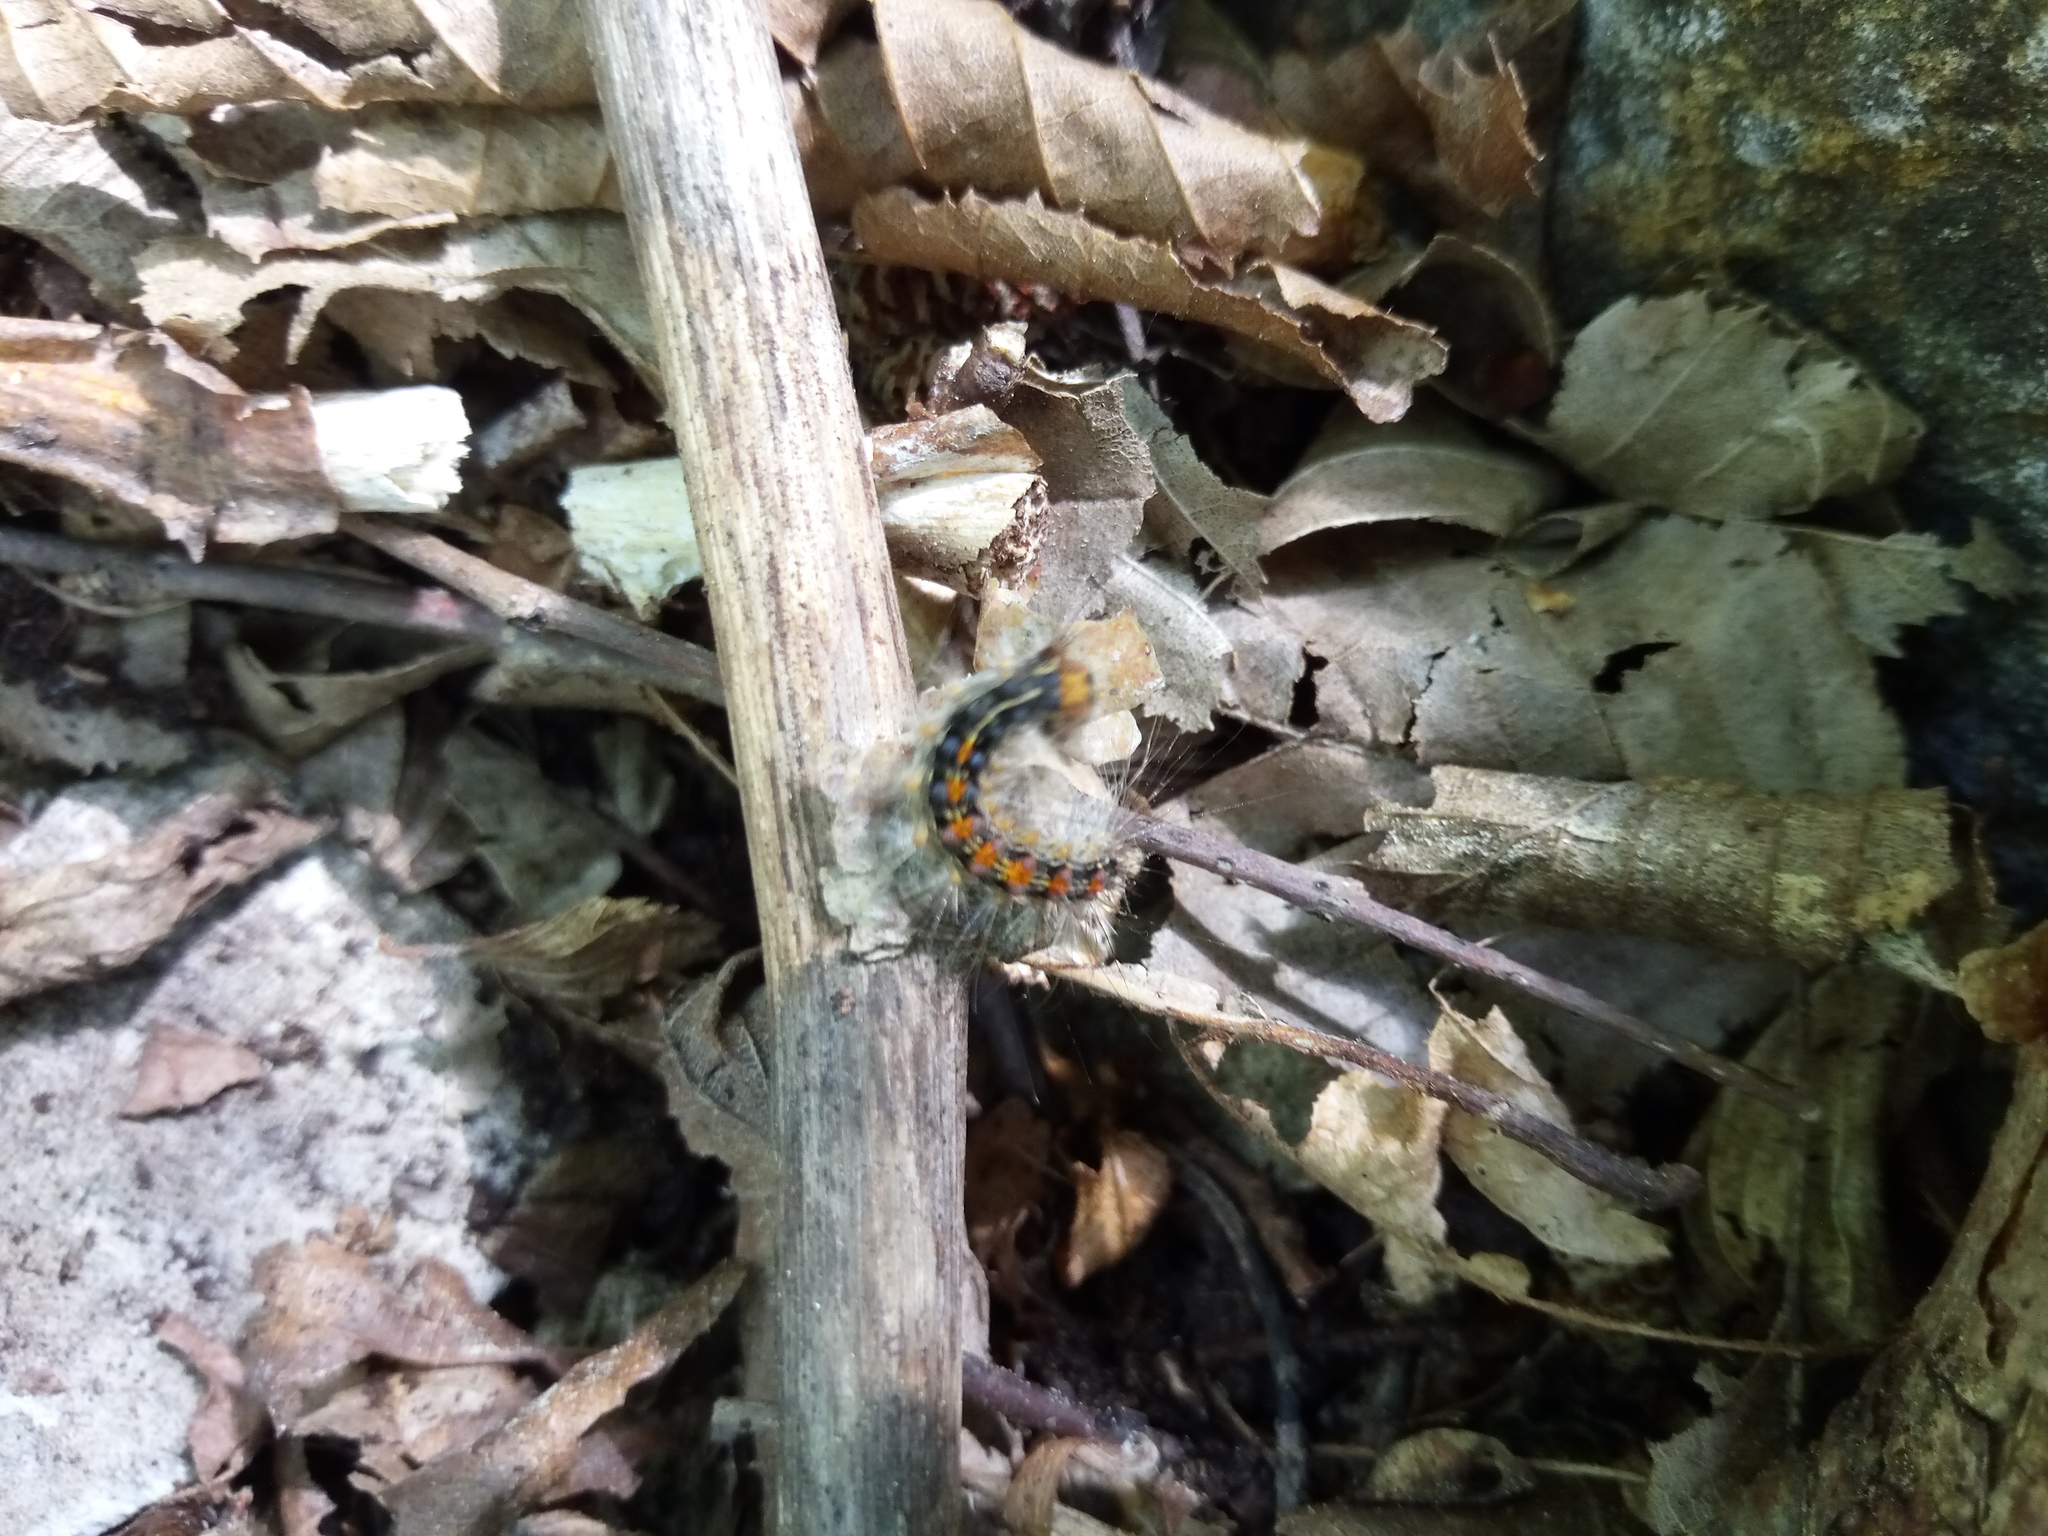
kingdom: Animalia
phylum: Arthropoda
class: Insecta
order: Lepidoptera
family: Erebidae
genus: Lymantria
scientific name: Lymantria dispar
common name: Gypsy moth
